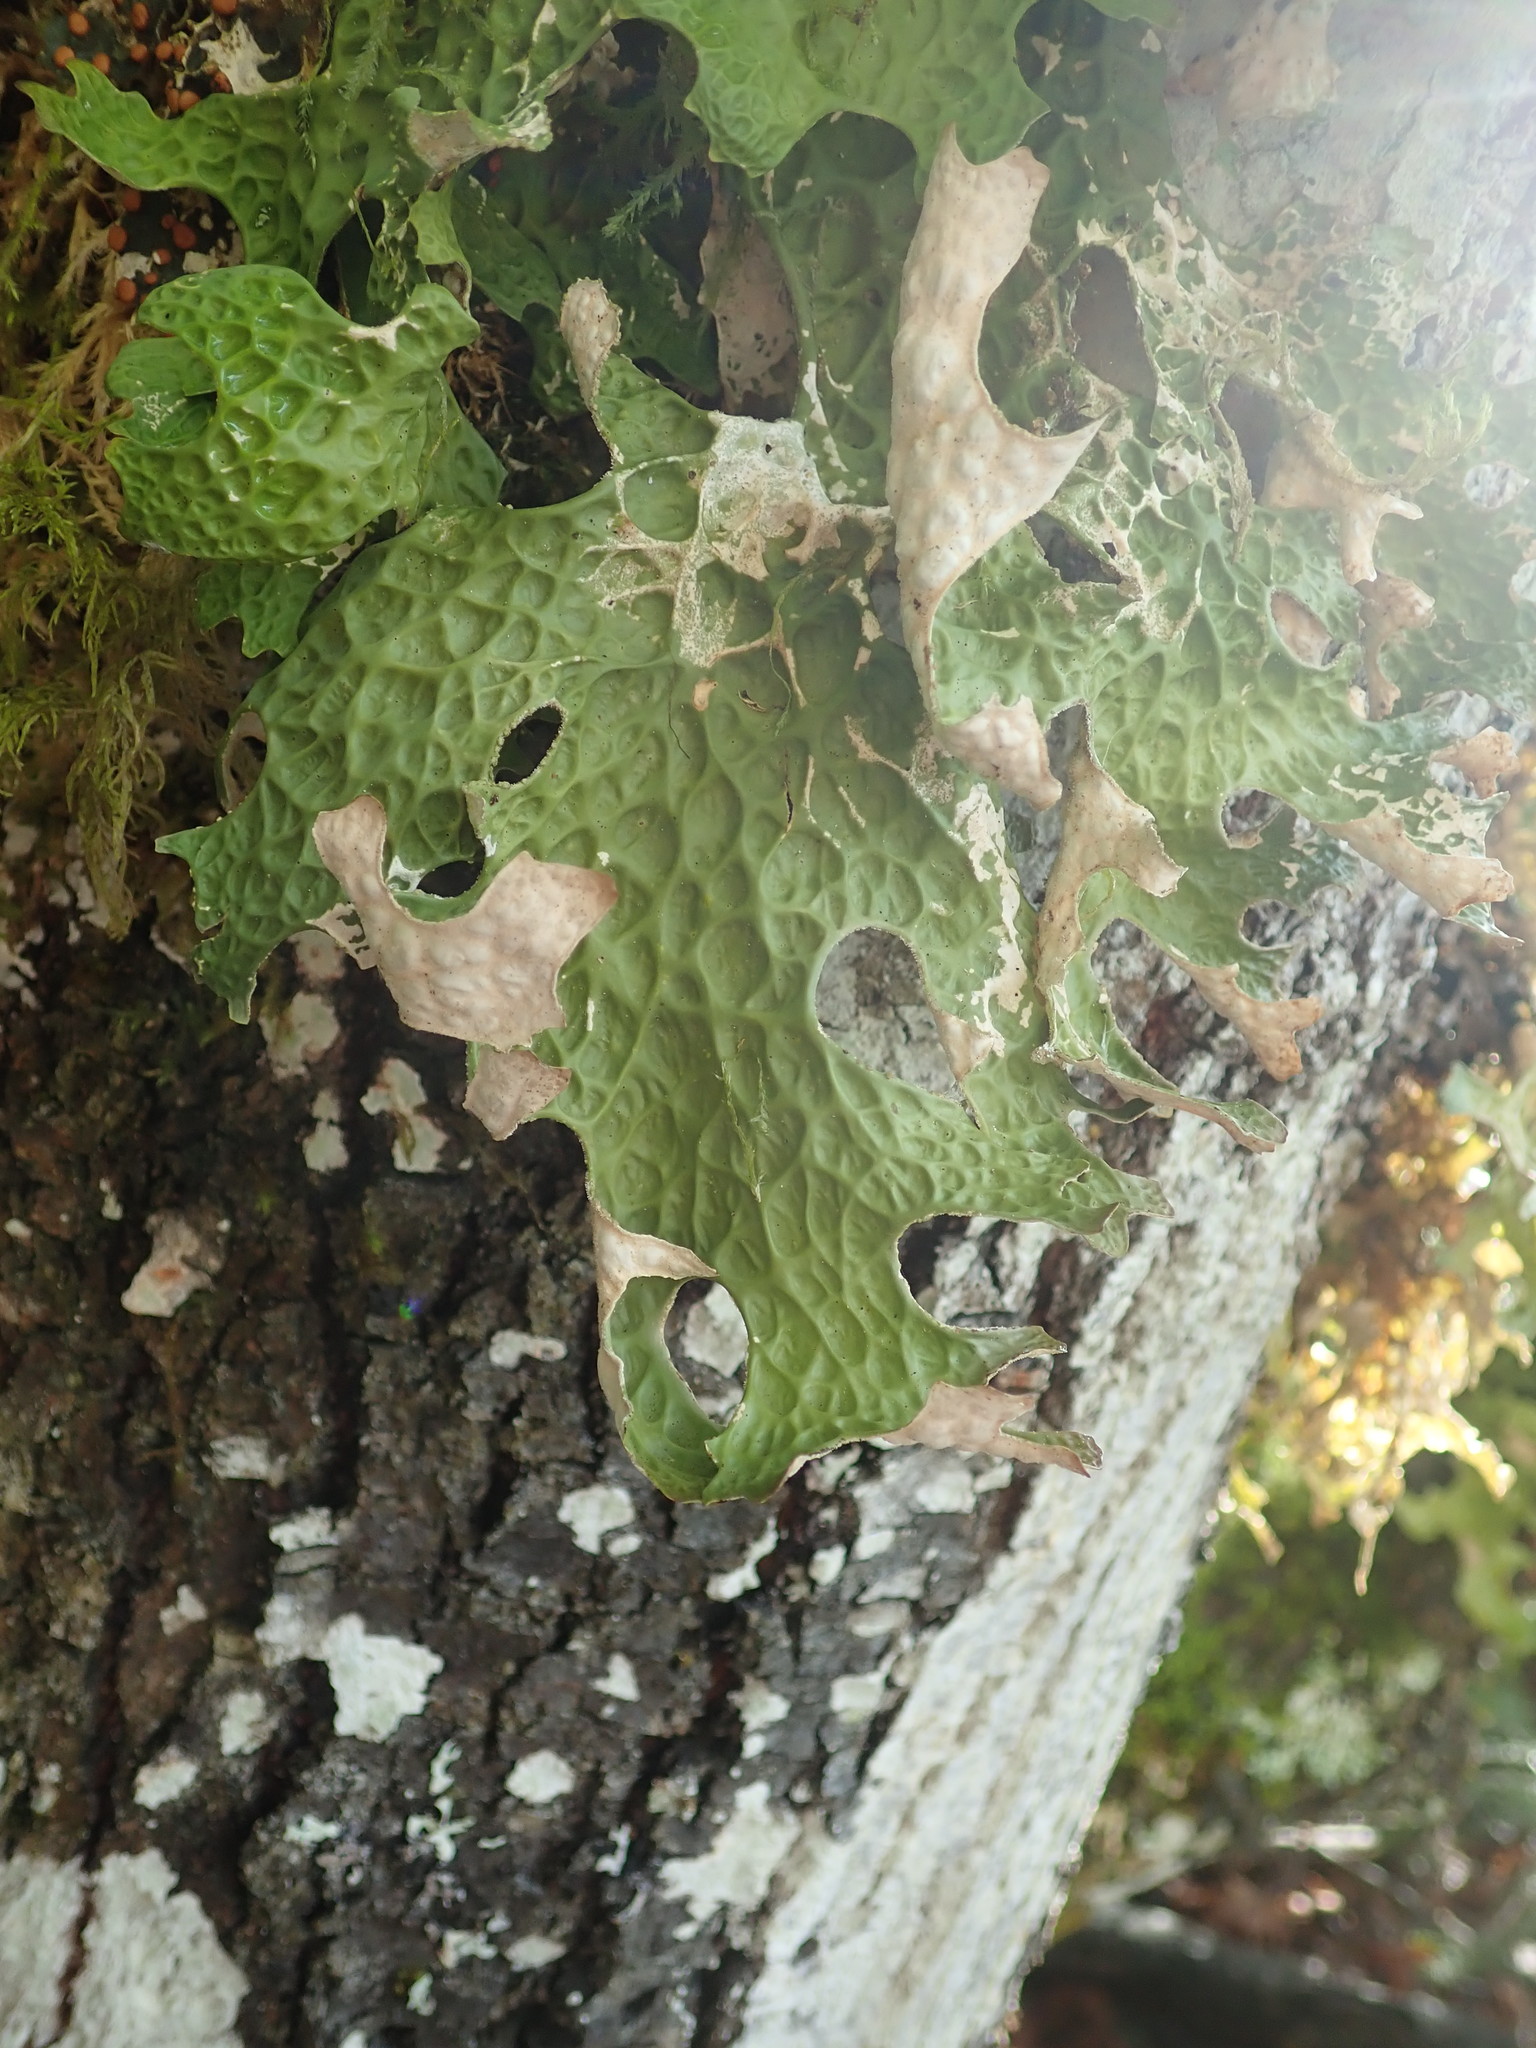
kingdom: Fungi
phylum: Ascomycota
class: Lecanoromycetes
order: Peltigerales
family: Lobariaceae
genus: Lobaria
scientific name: Lobaria pulmonaria
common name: Lungwort
